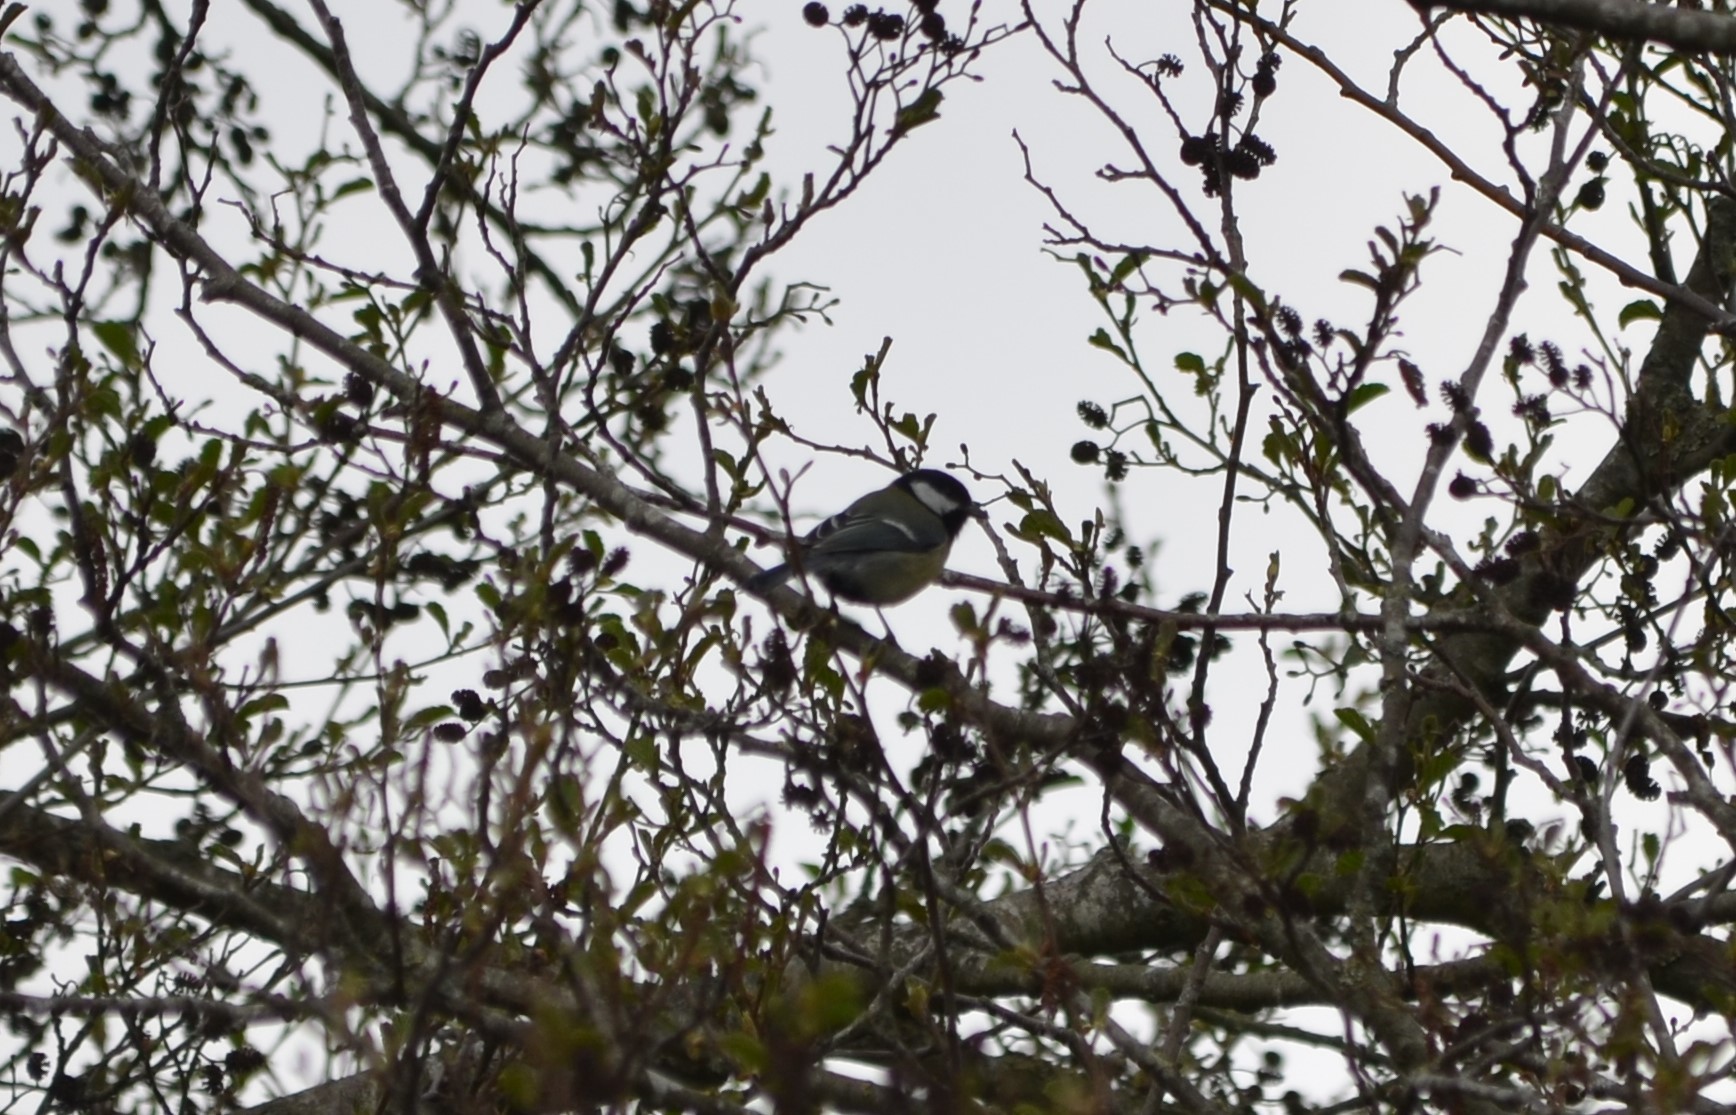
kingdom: Animalia
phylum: Chordata
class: Aves
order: Passeriformes
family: Paridae
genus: Parus
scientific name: Parus major
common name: Great tit
